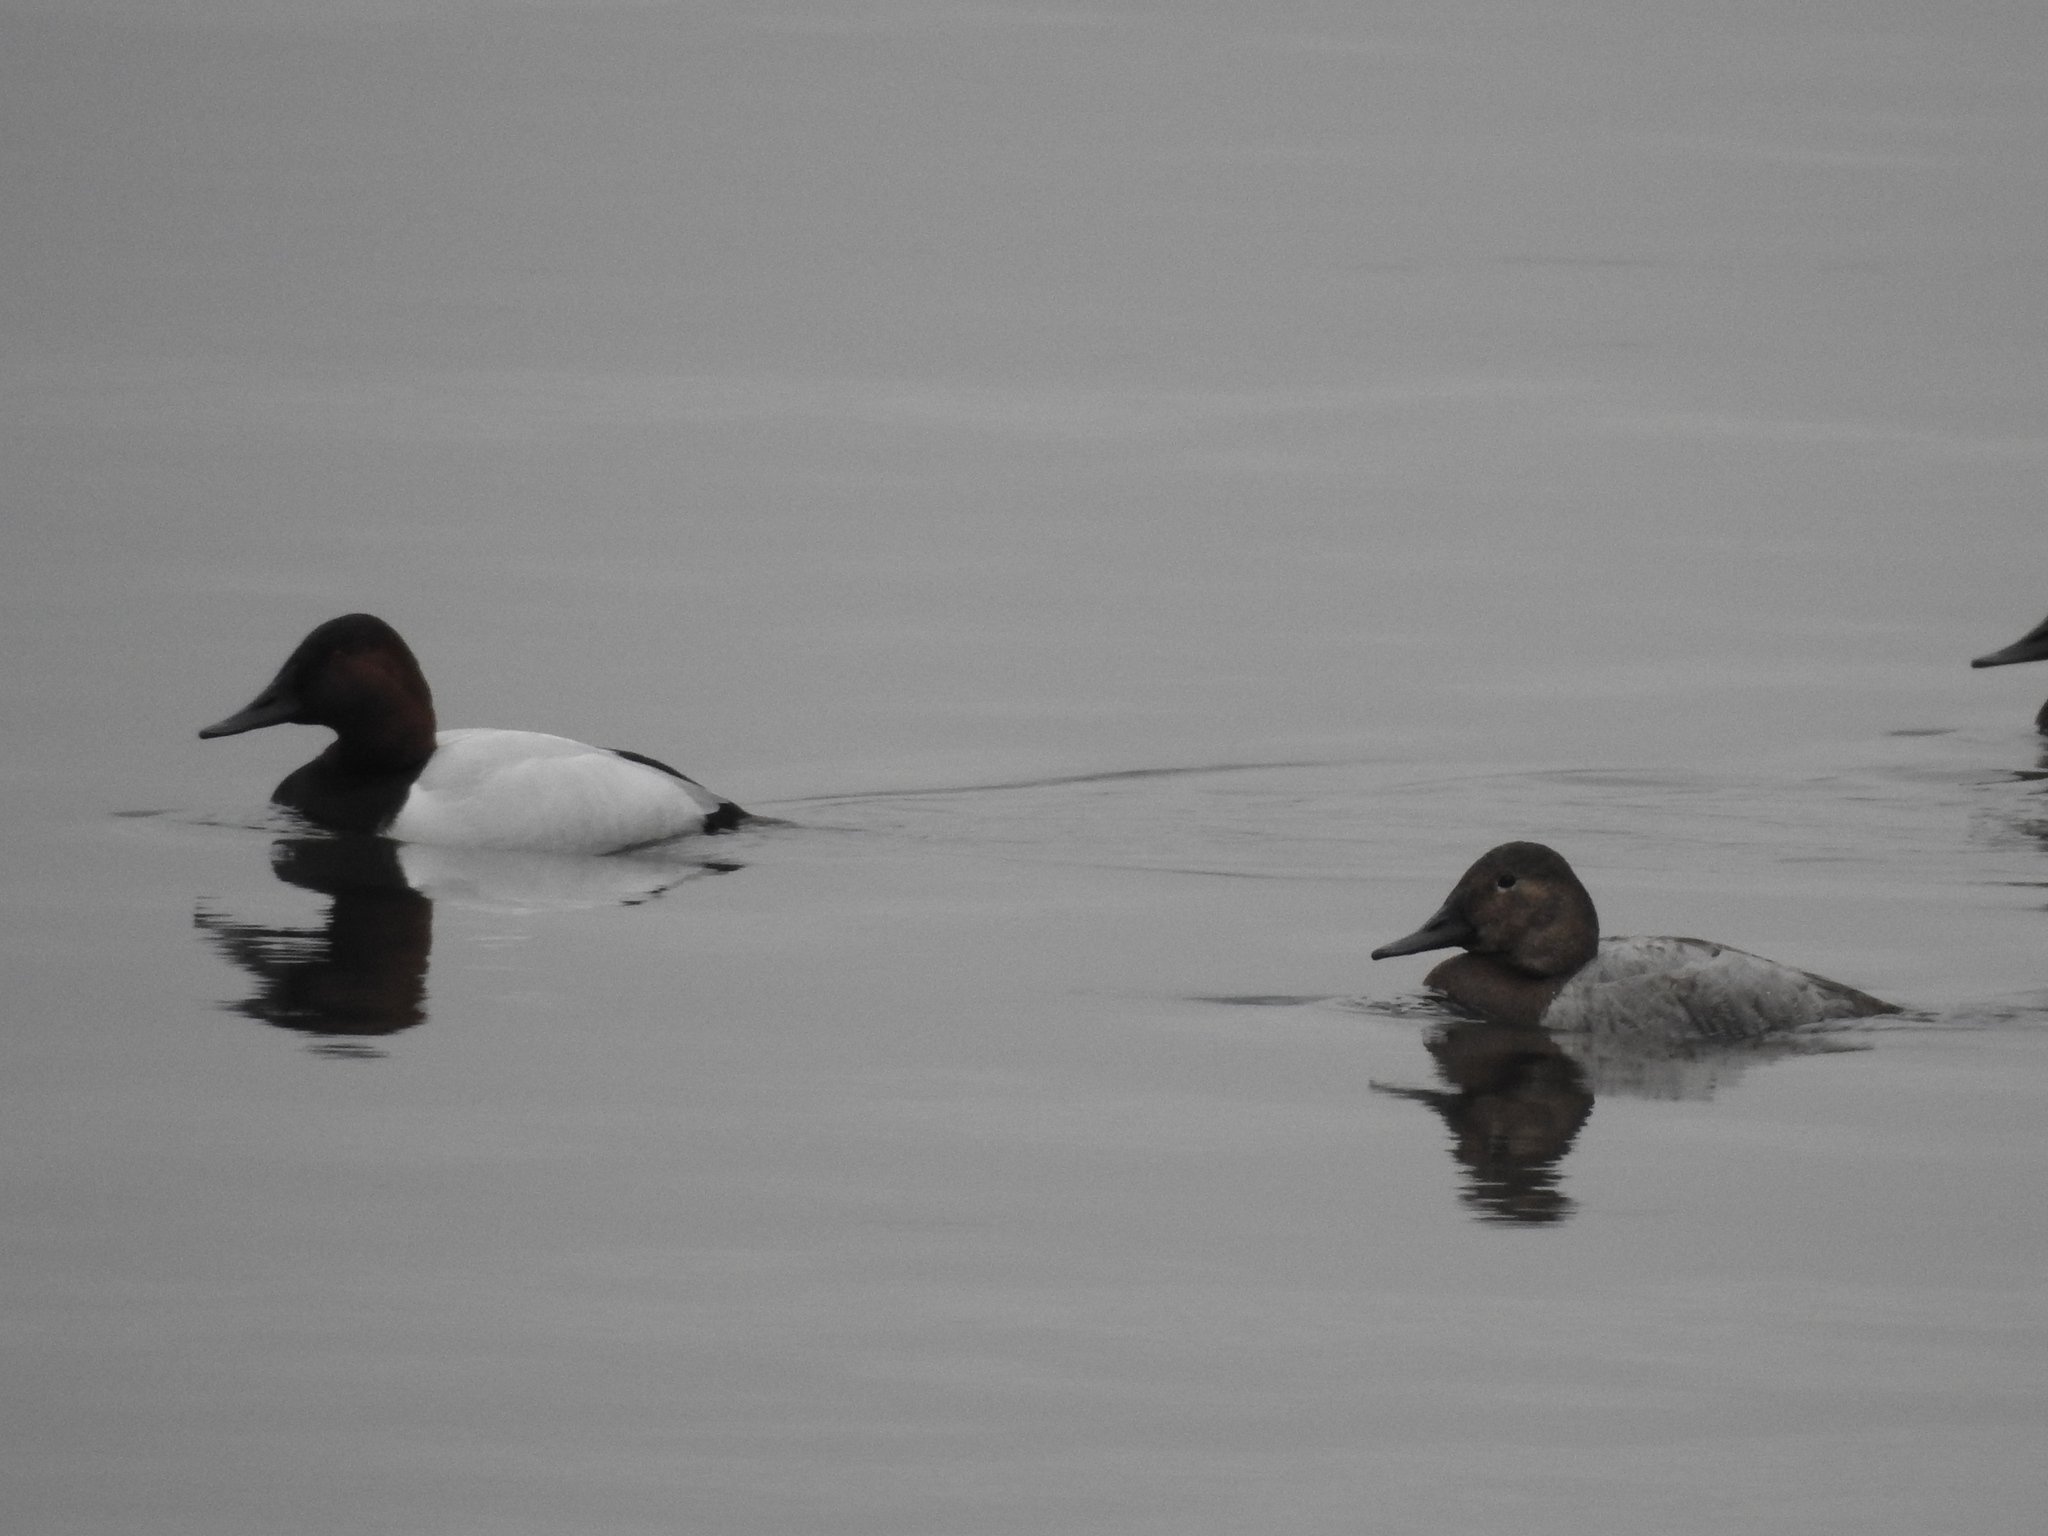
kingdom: Animalia
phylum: Chordata
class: Aves
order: Anseriformes
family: Anatidae
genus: Aythya
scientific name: Aythya valisineria
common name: Canvasback
